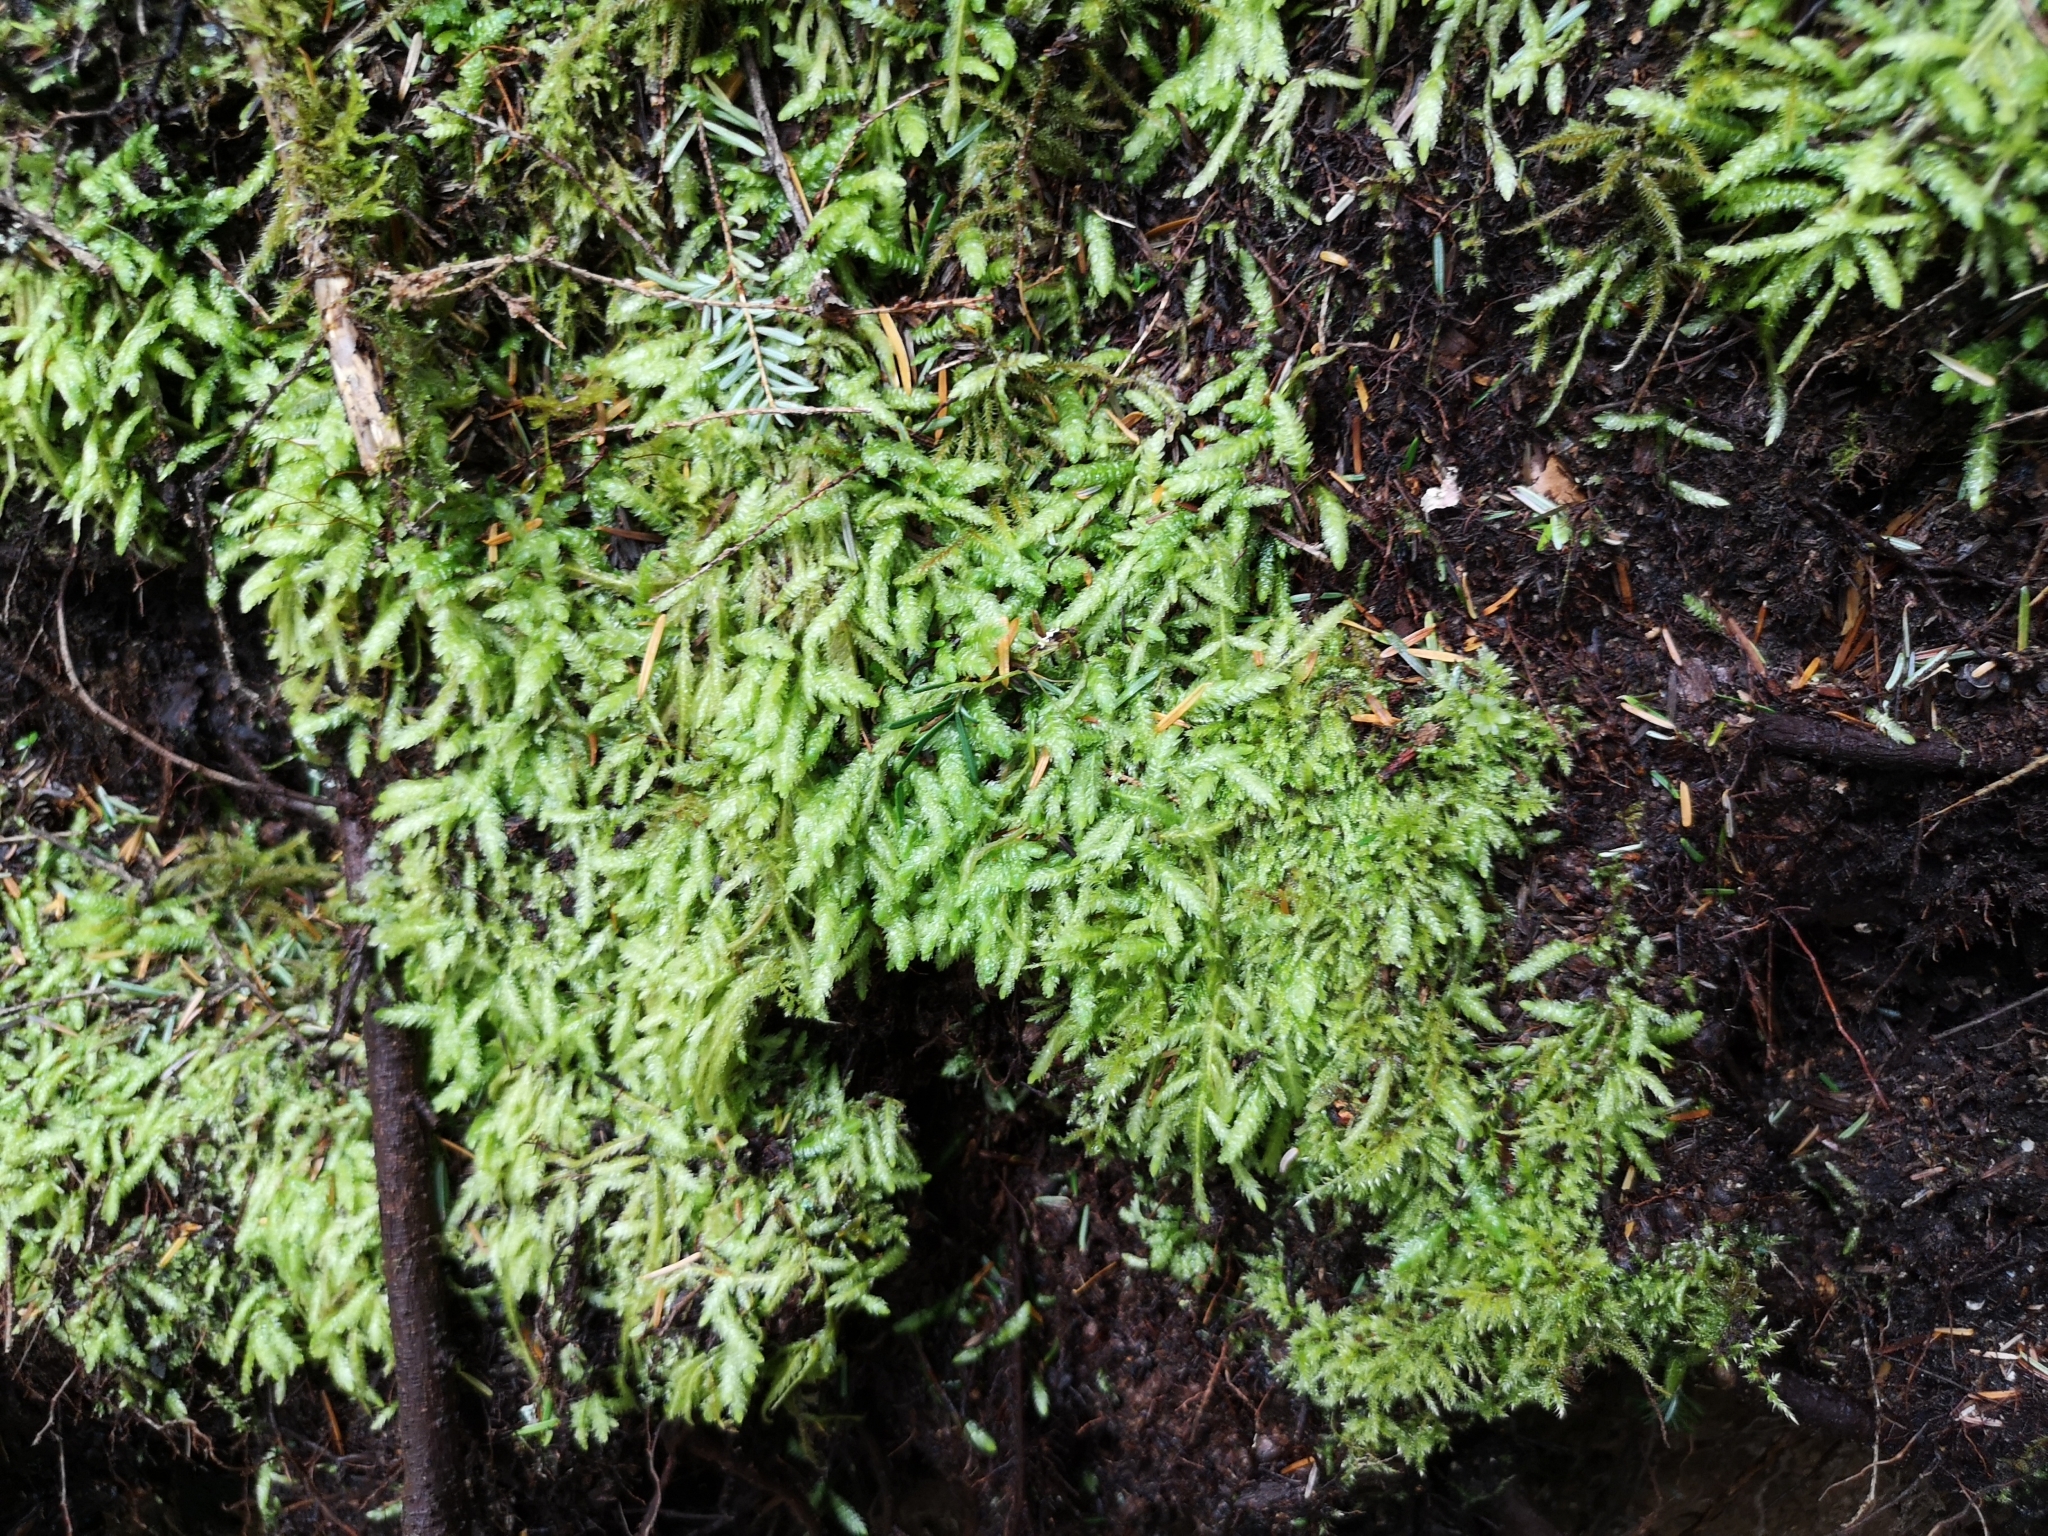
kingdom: Plantae
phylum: Bryophyta
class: Bryopsida
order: Hypnales
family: Plagiotheciaceae
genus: Plagiothecium
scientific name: Plagiothecium undulatum
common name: Waved silk-moss
